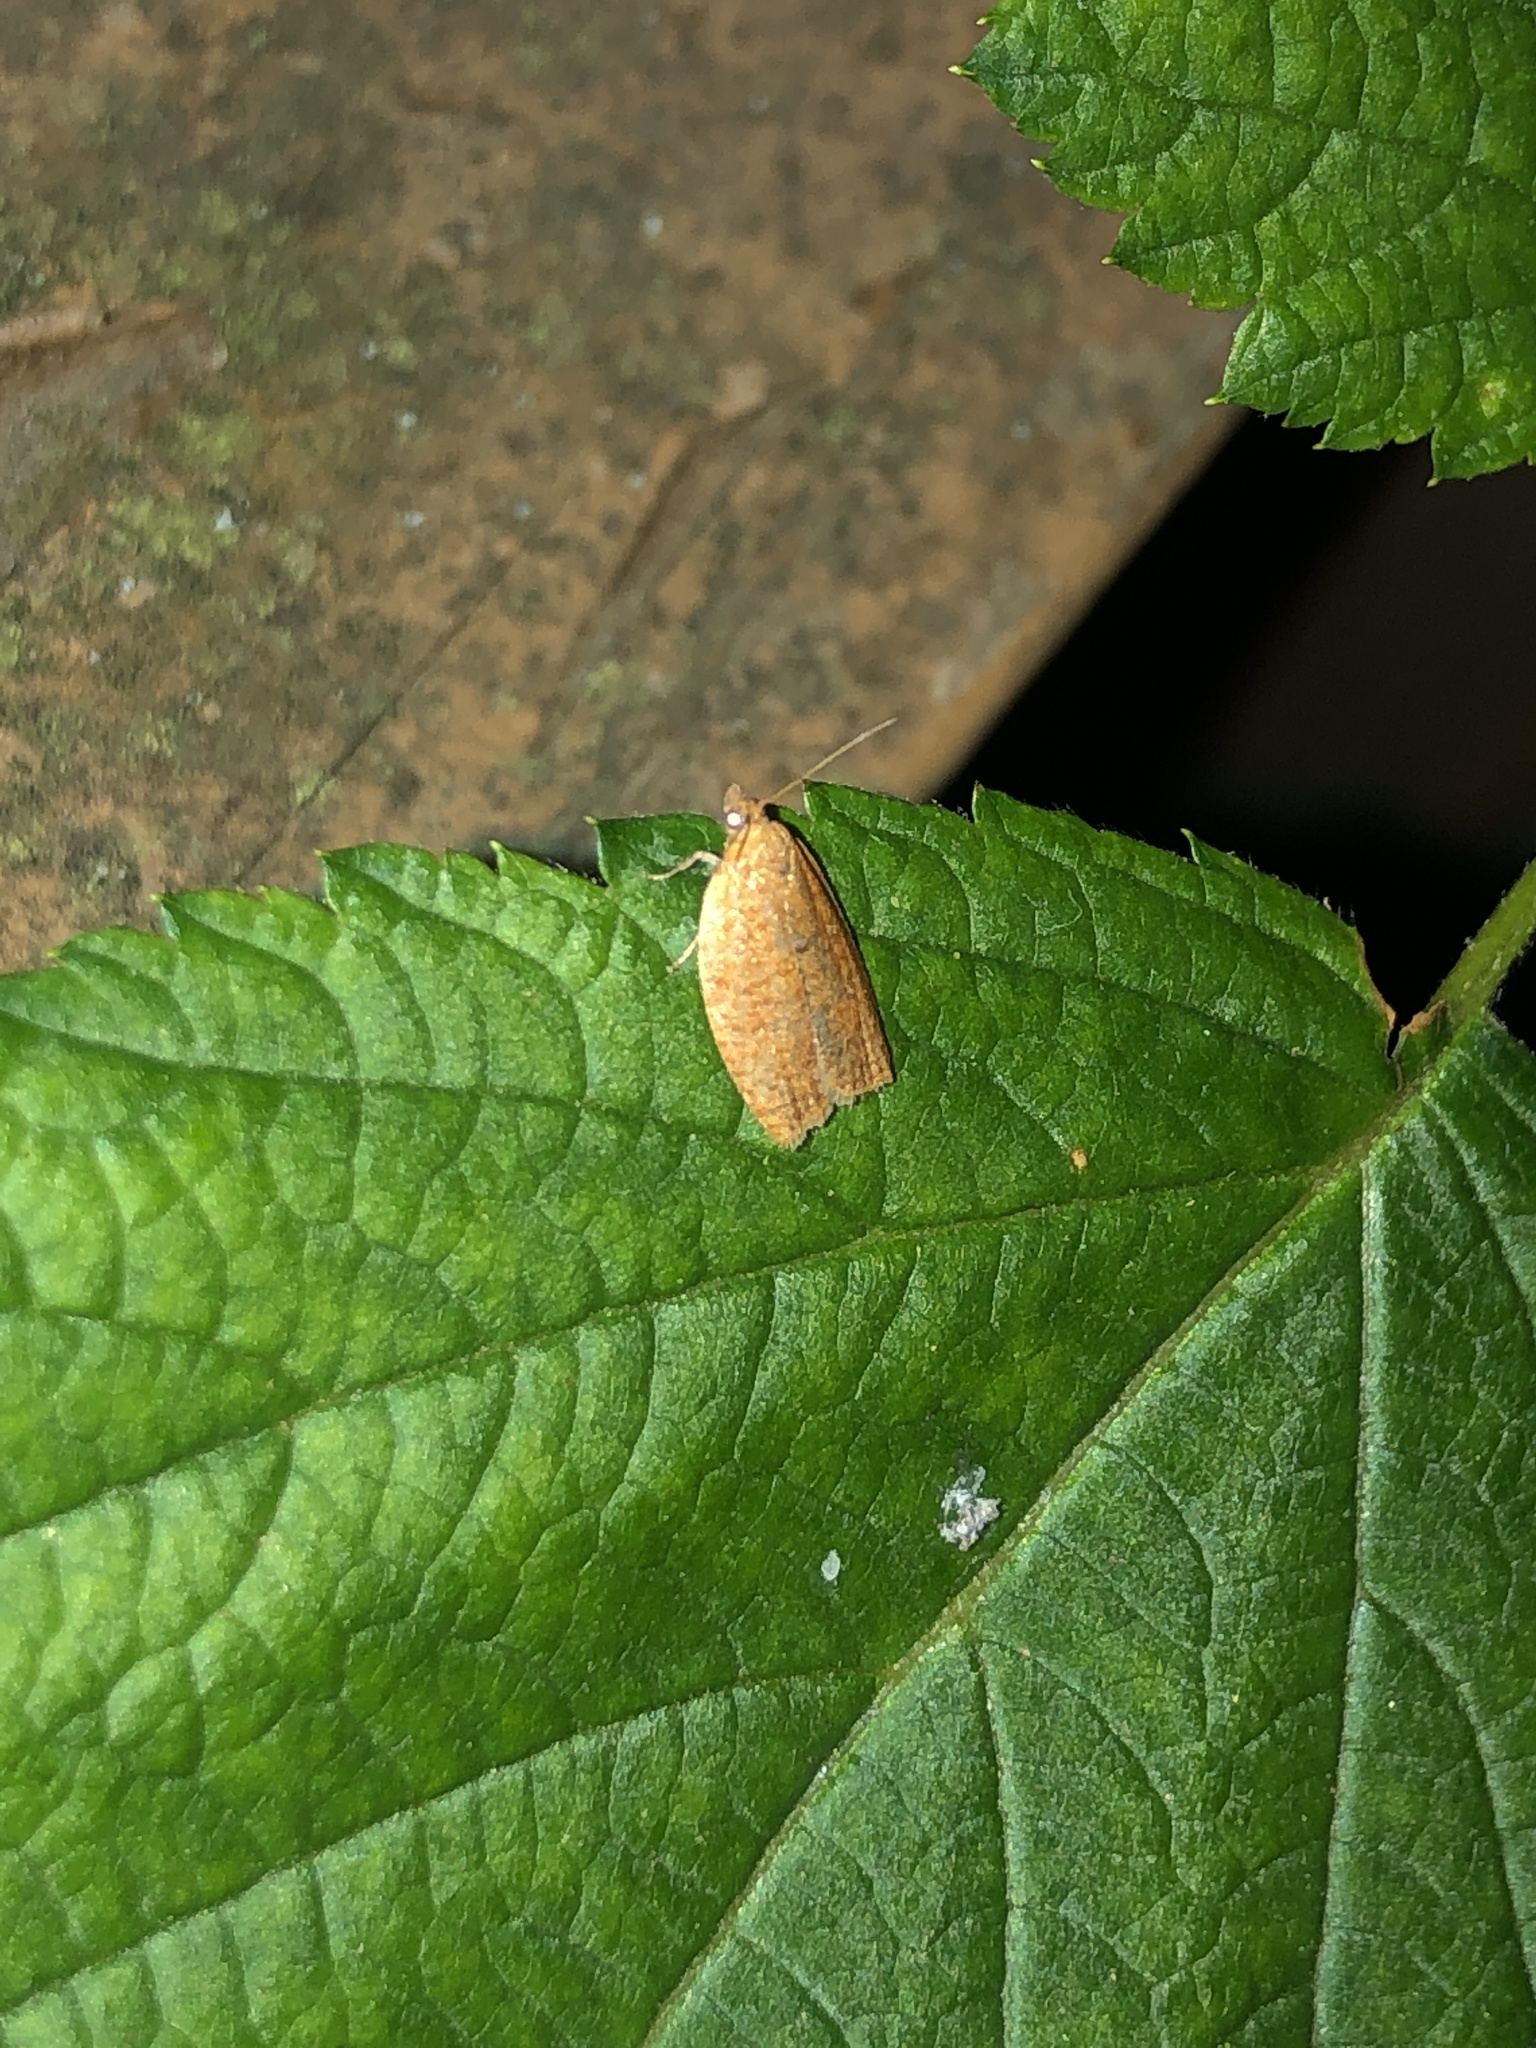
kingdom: Animalia
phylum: Arthropoda
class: Insecta
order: Lepidoptera
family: Tortricidae
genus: Clepsis
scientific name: Clepsis consimilana
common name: Privet tortrix
